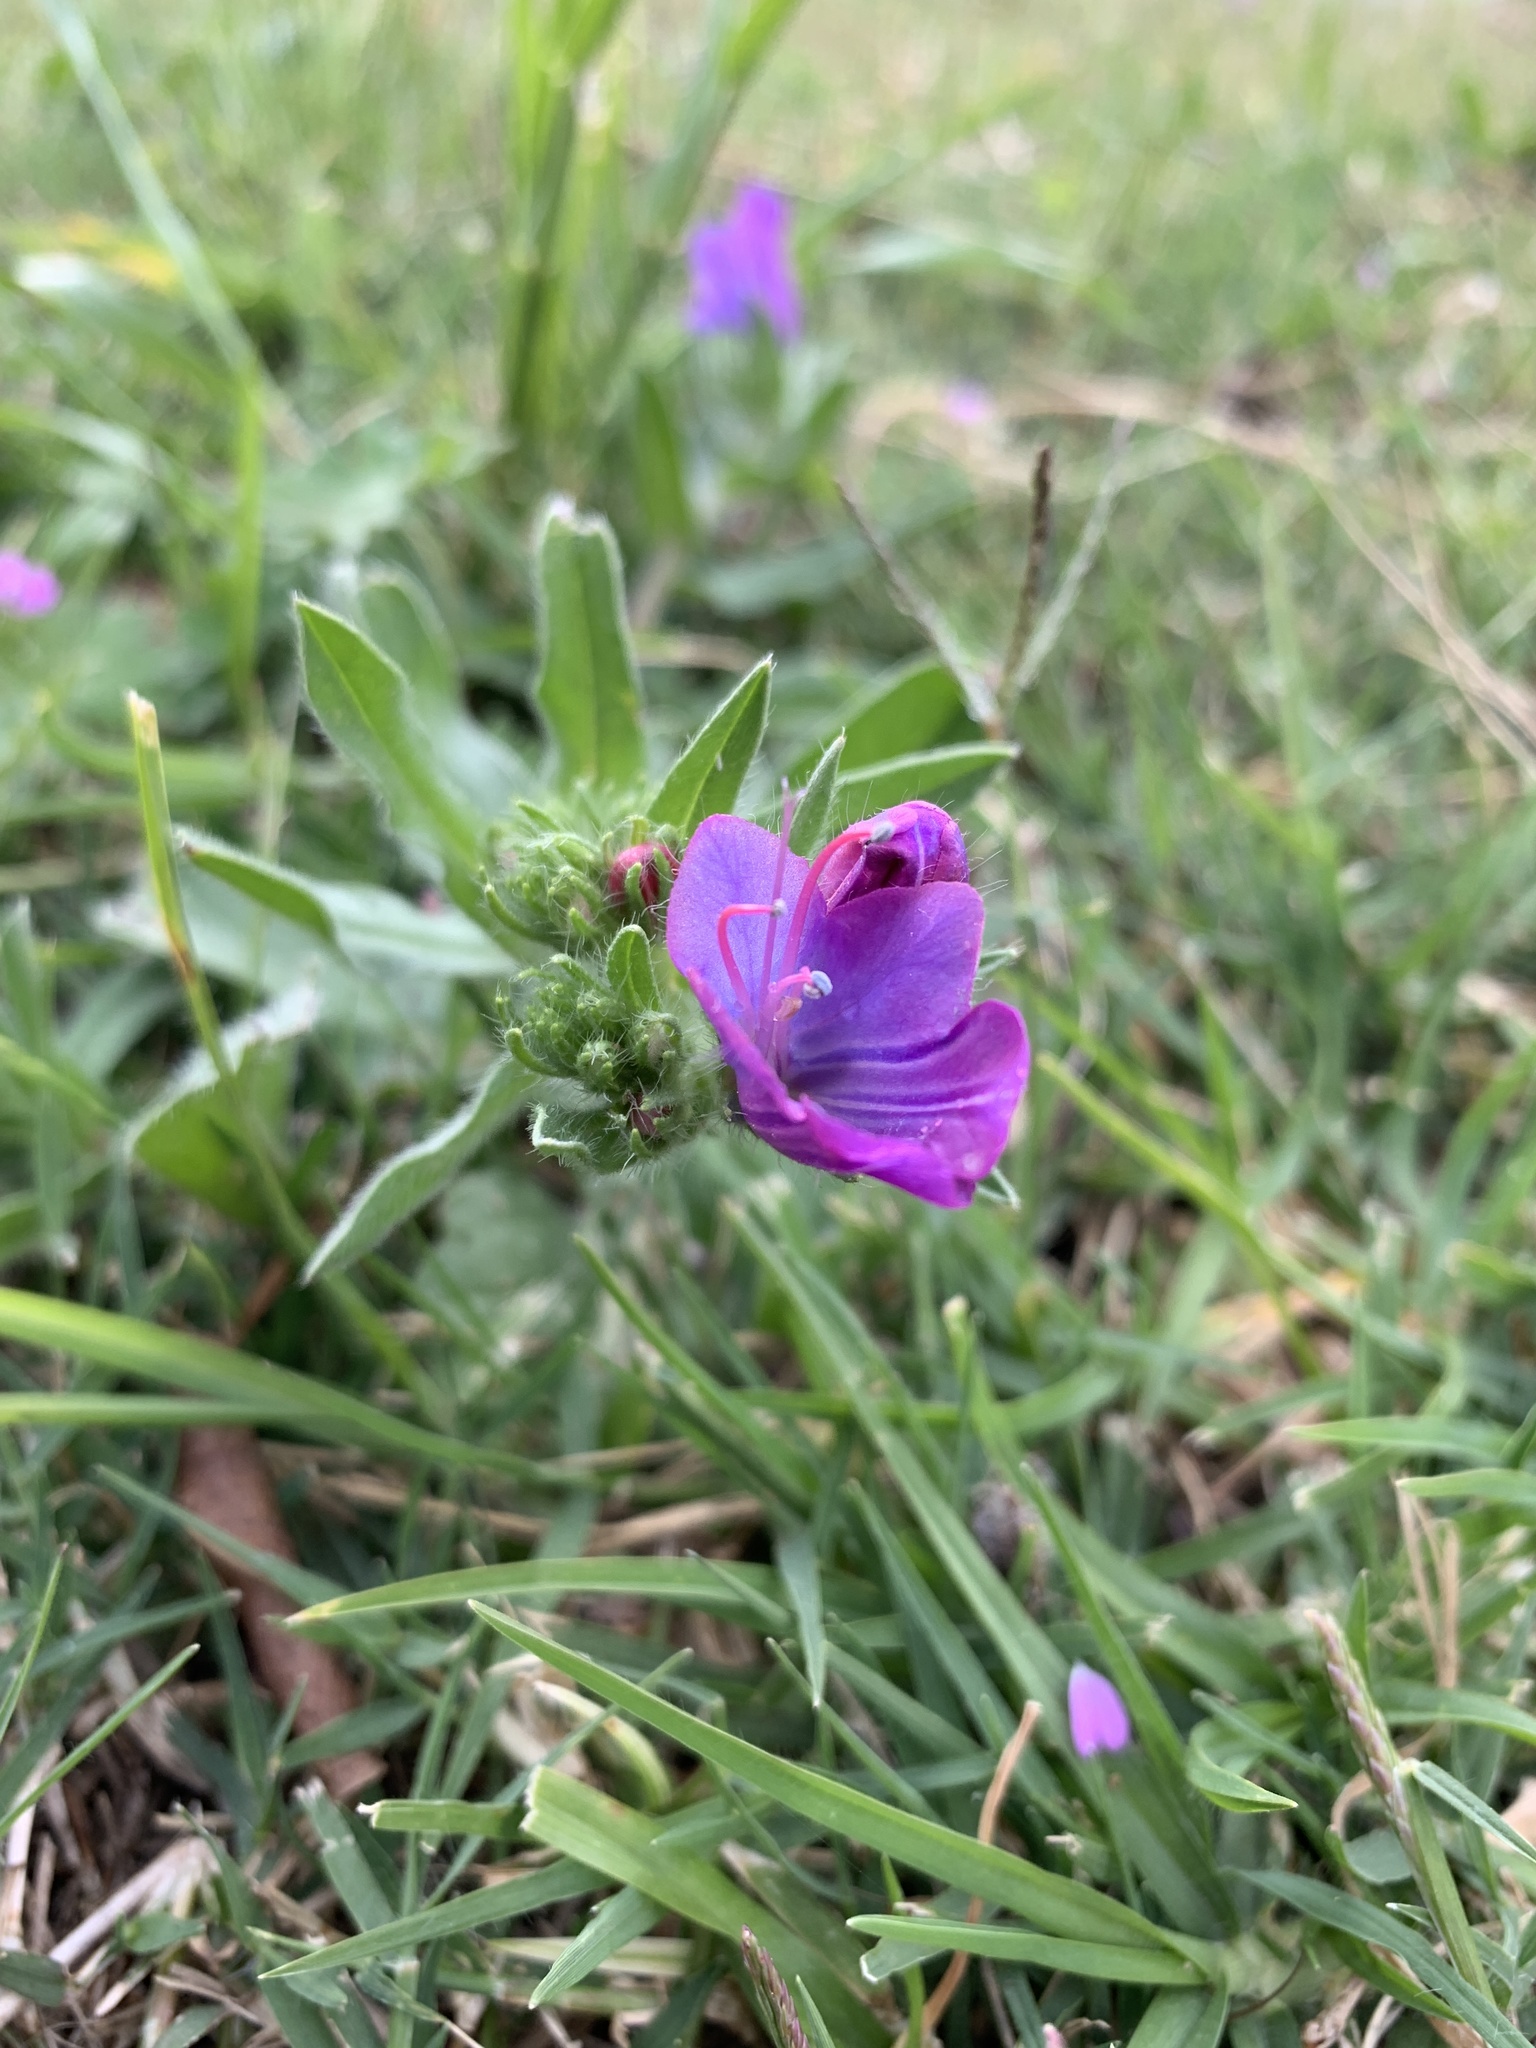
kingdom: Plantae
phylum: Tracheophyta
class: Magnoliopsida
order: Boraginales
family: Boraginaceae
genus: Echium
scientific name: Echium plantagineum
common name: Purple viper's-bugloss
